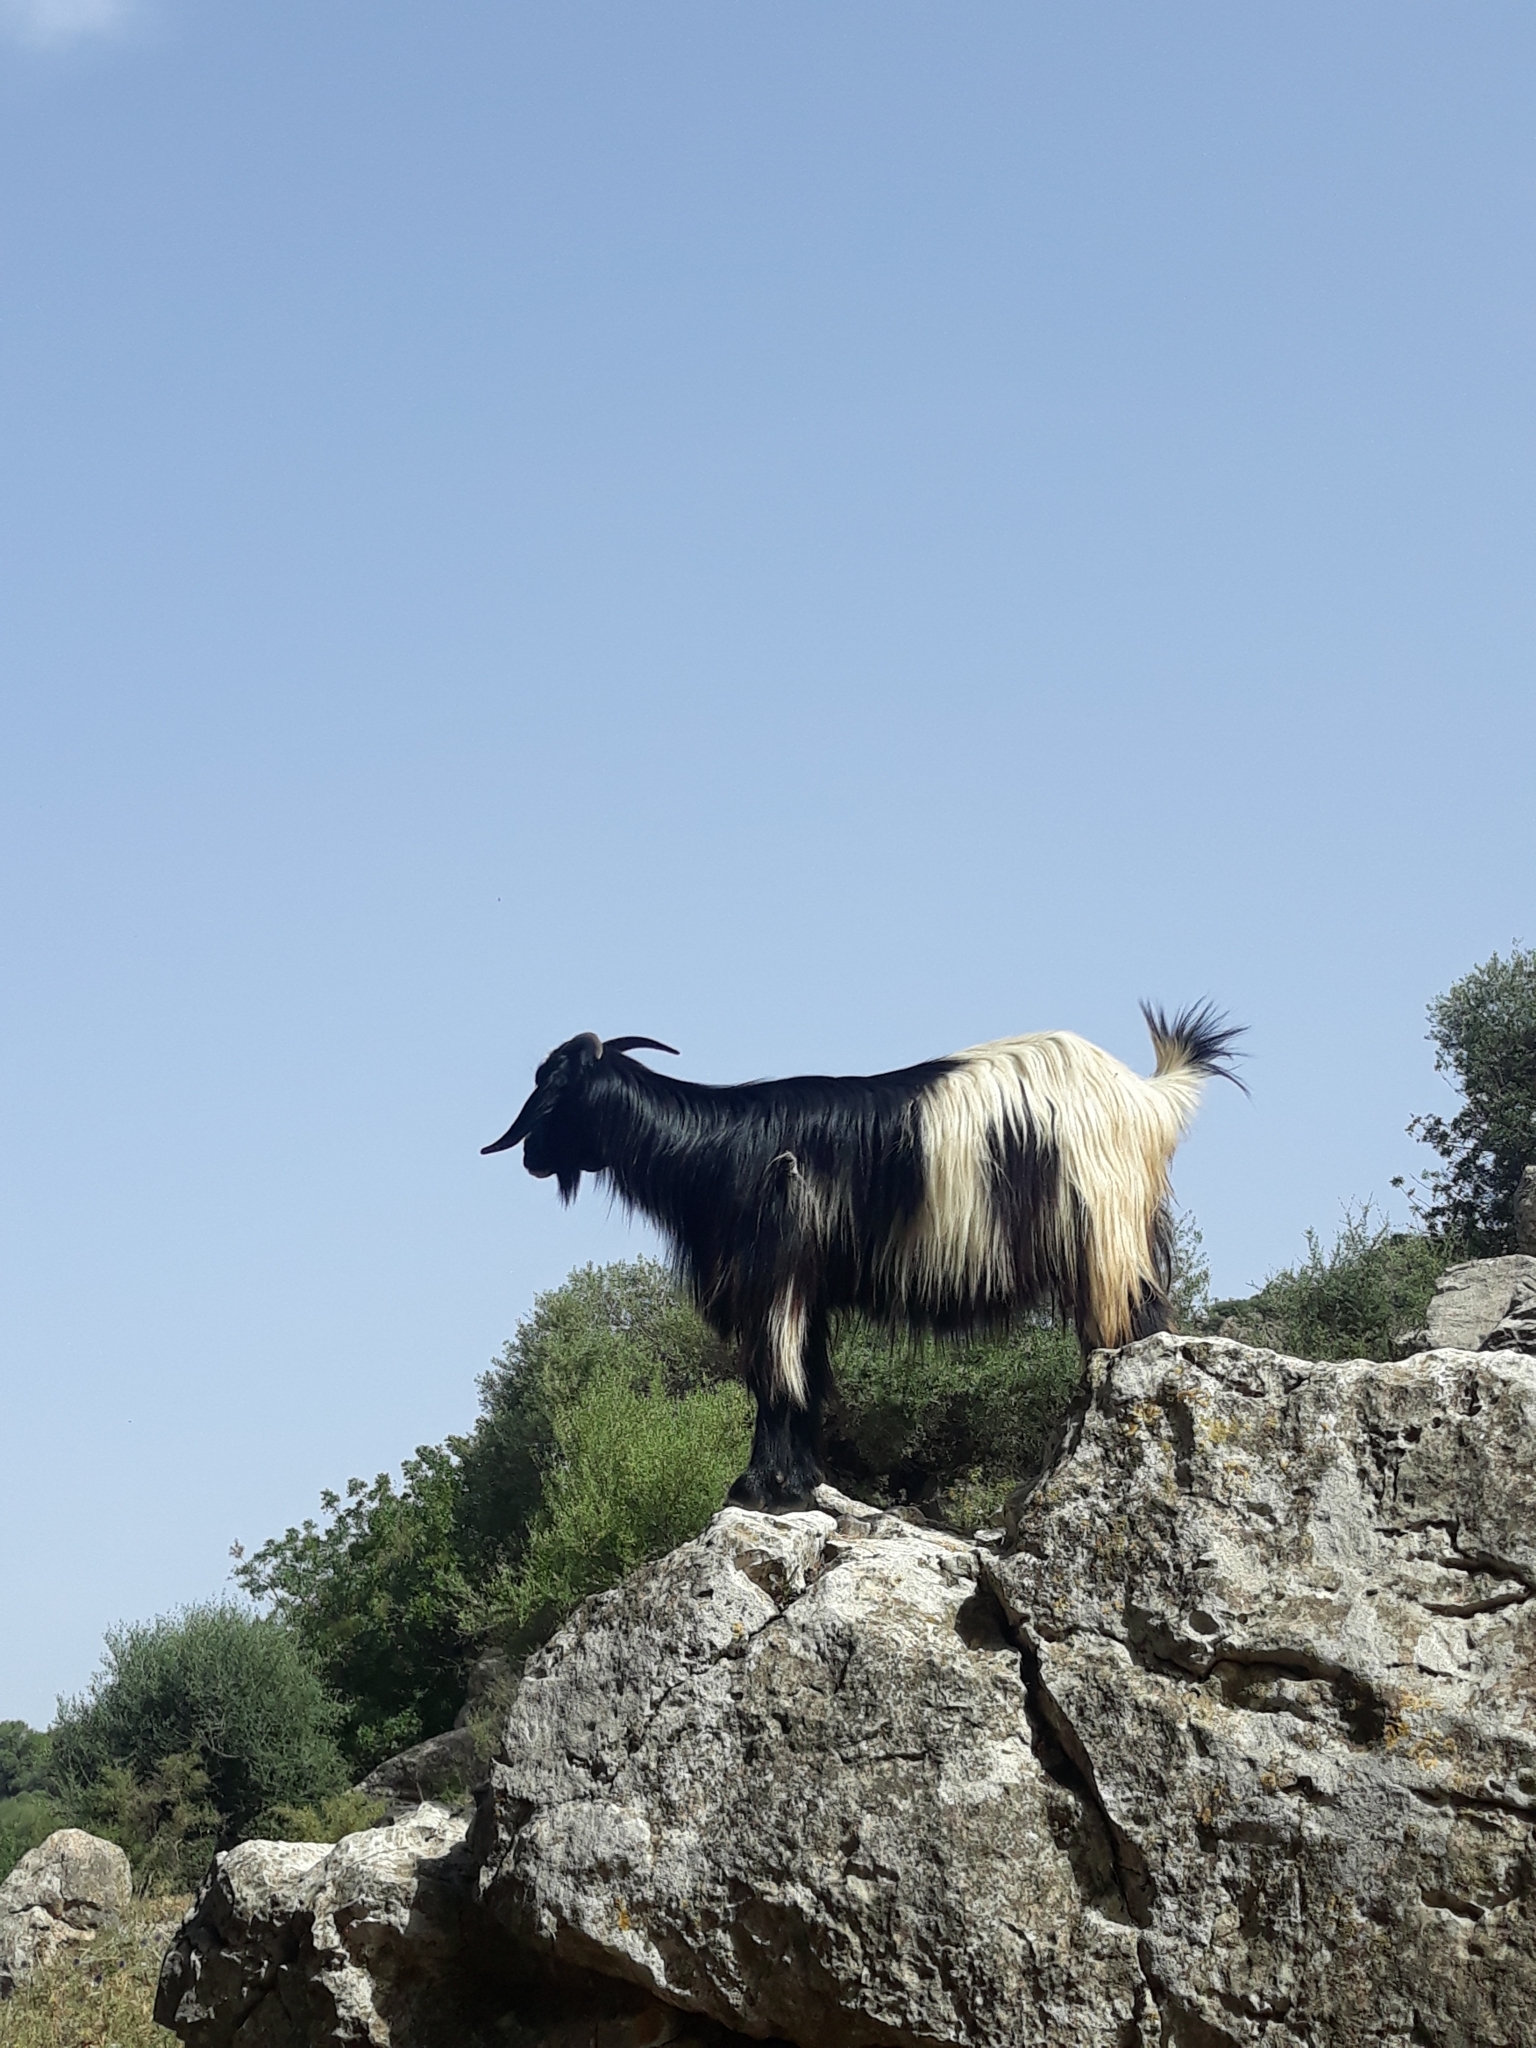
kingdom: Animalia
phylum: Chordata
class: Mammalia
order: Artiodactyla
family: Bovidae
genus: Capra
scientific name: Capra hircus
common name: Domestic goat
